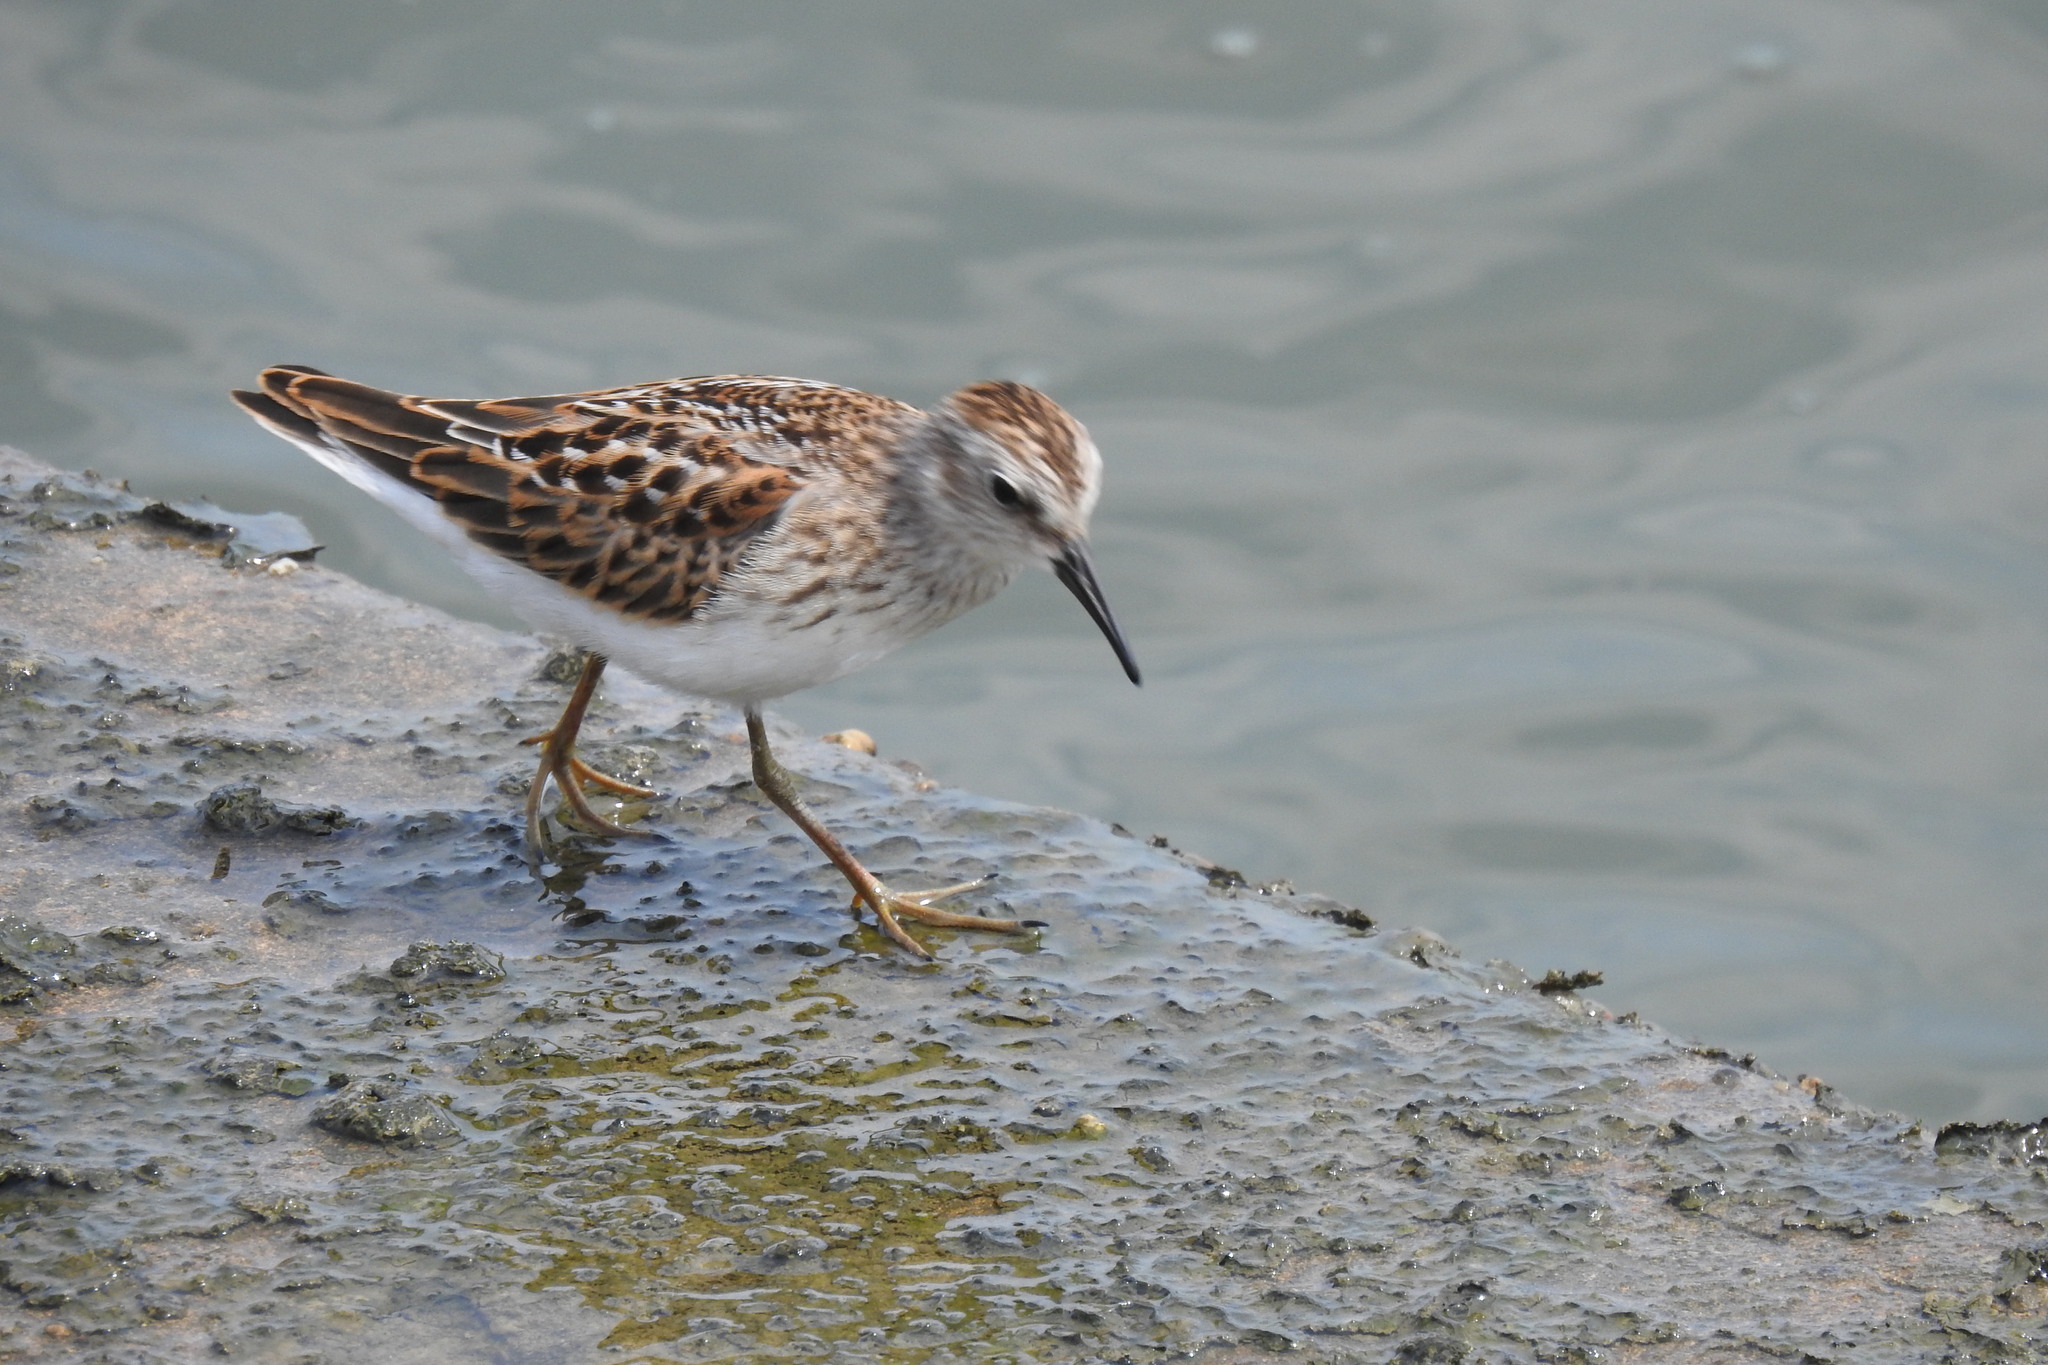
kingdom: Animalia
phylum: Chordata
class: Aves
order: Charadriiformes
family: Scolopacidae
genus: Calidris
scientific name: Calidris minutilla
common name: Least sandpiper
